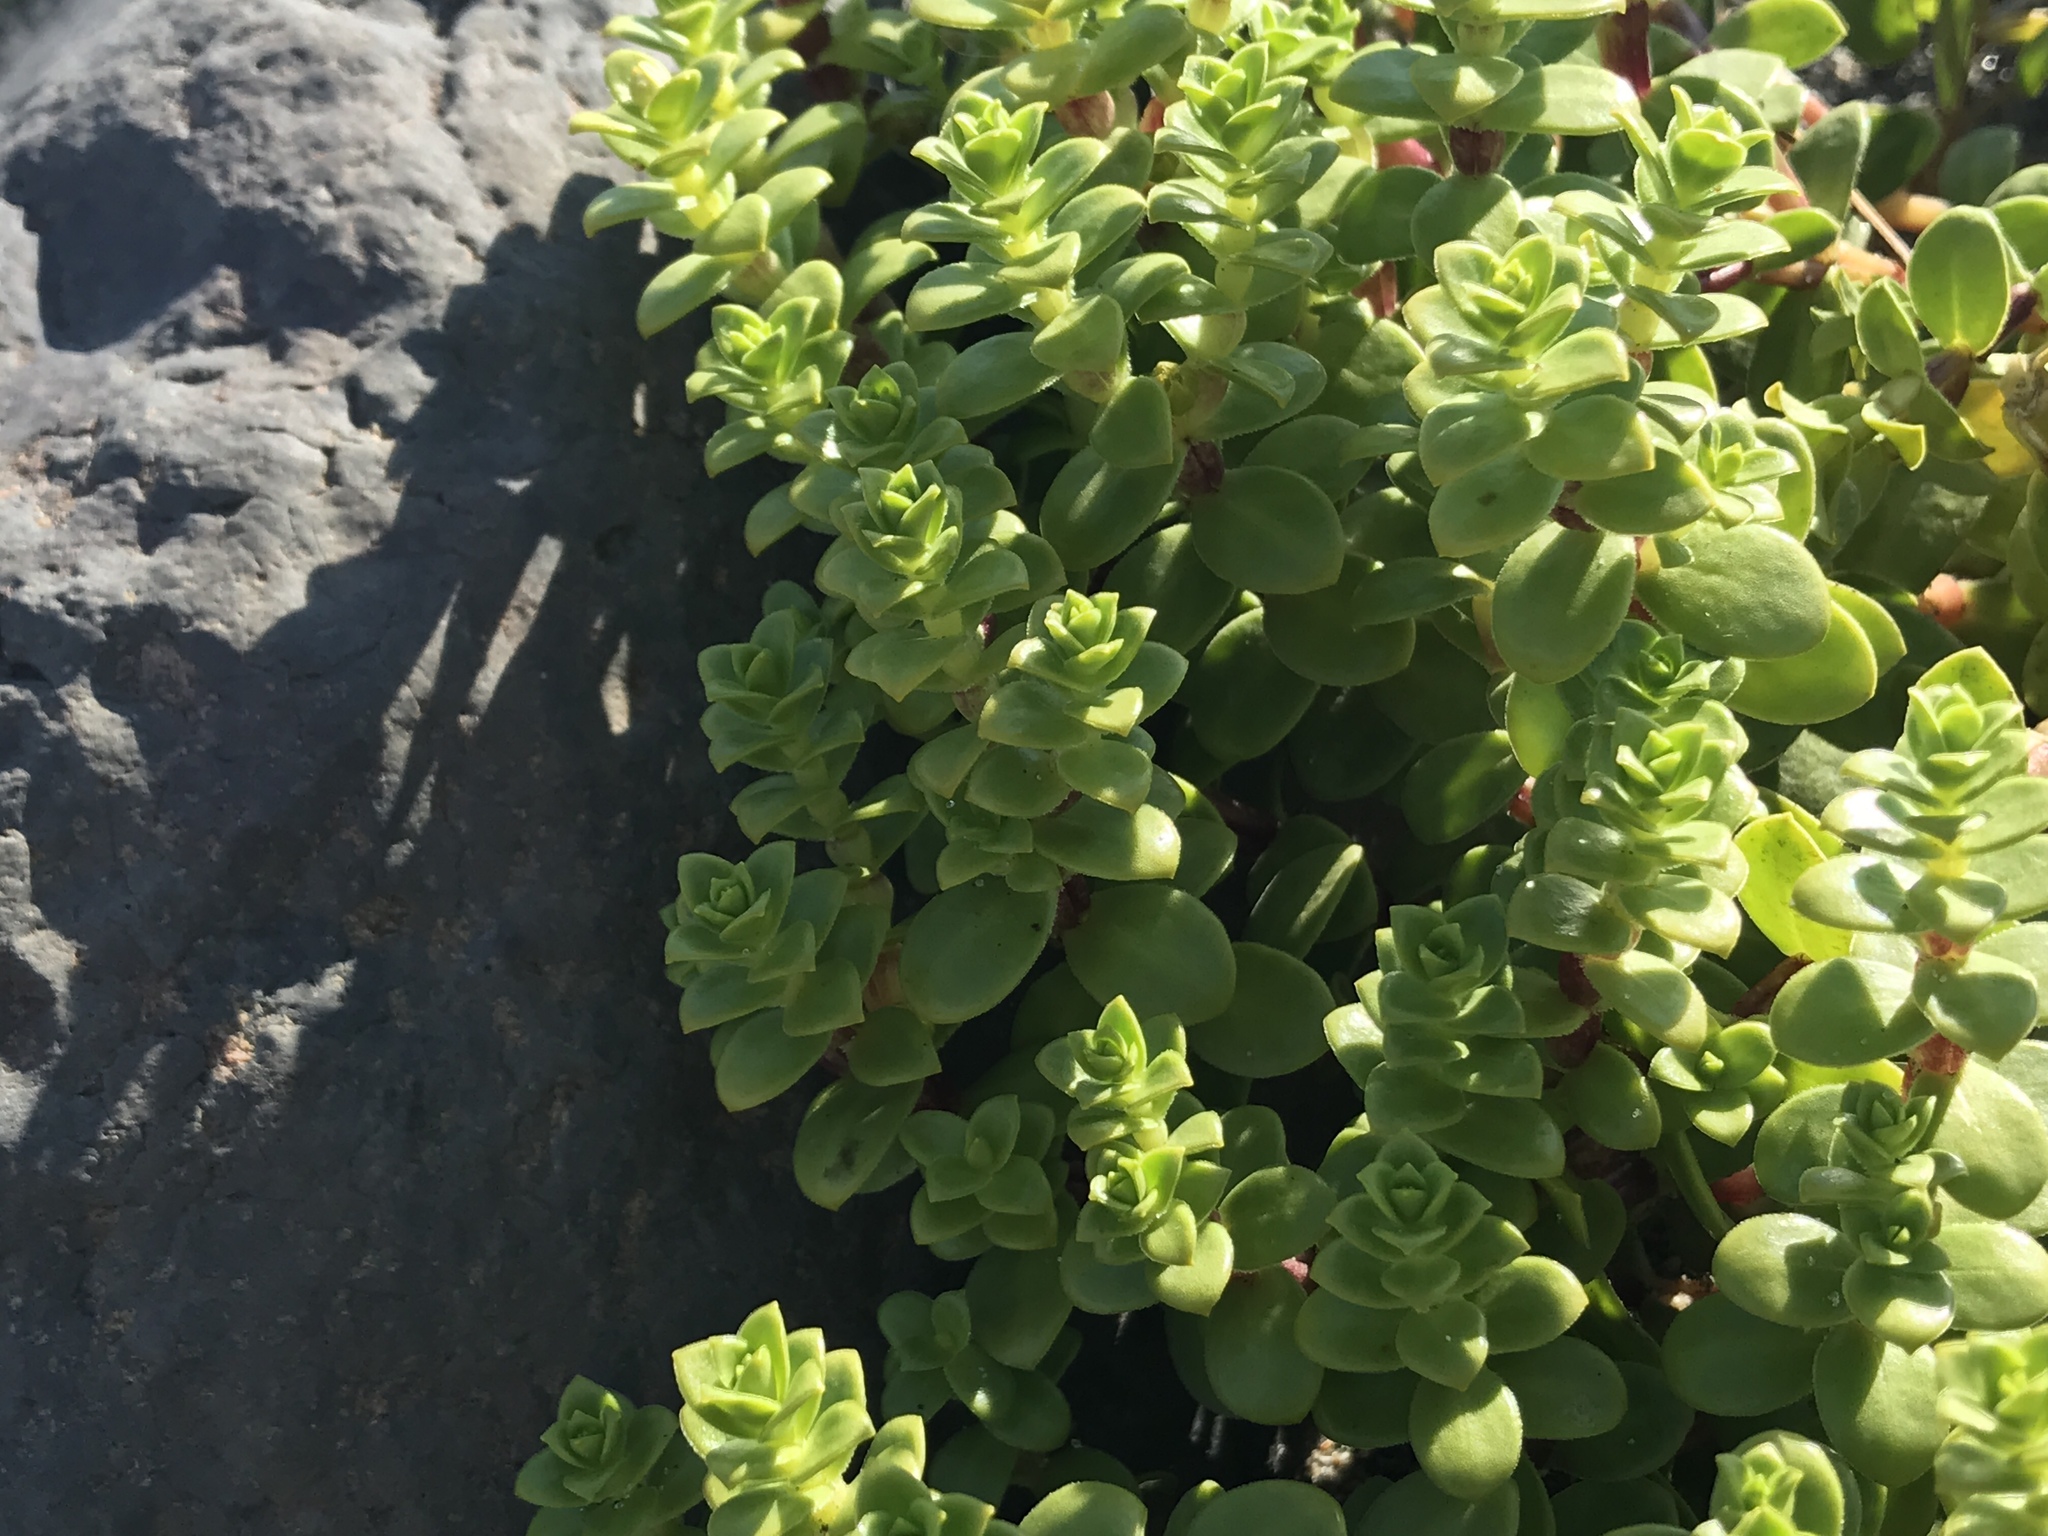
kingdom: Plantae
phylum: Tracheophyta
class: Magnoliopsida
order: Caryophyllales
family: Caryophyllaceae
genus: Honckenya
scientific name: Honckenya peploides
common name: Sea sandwort
